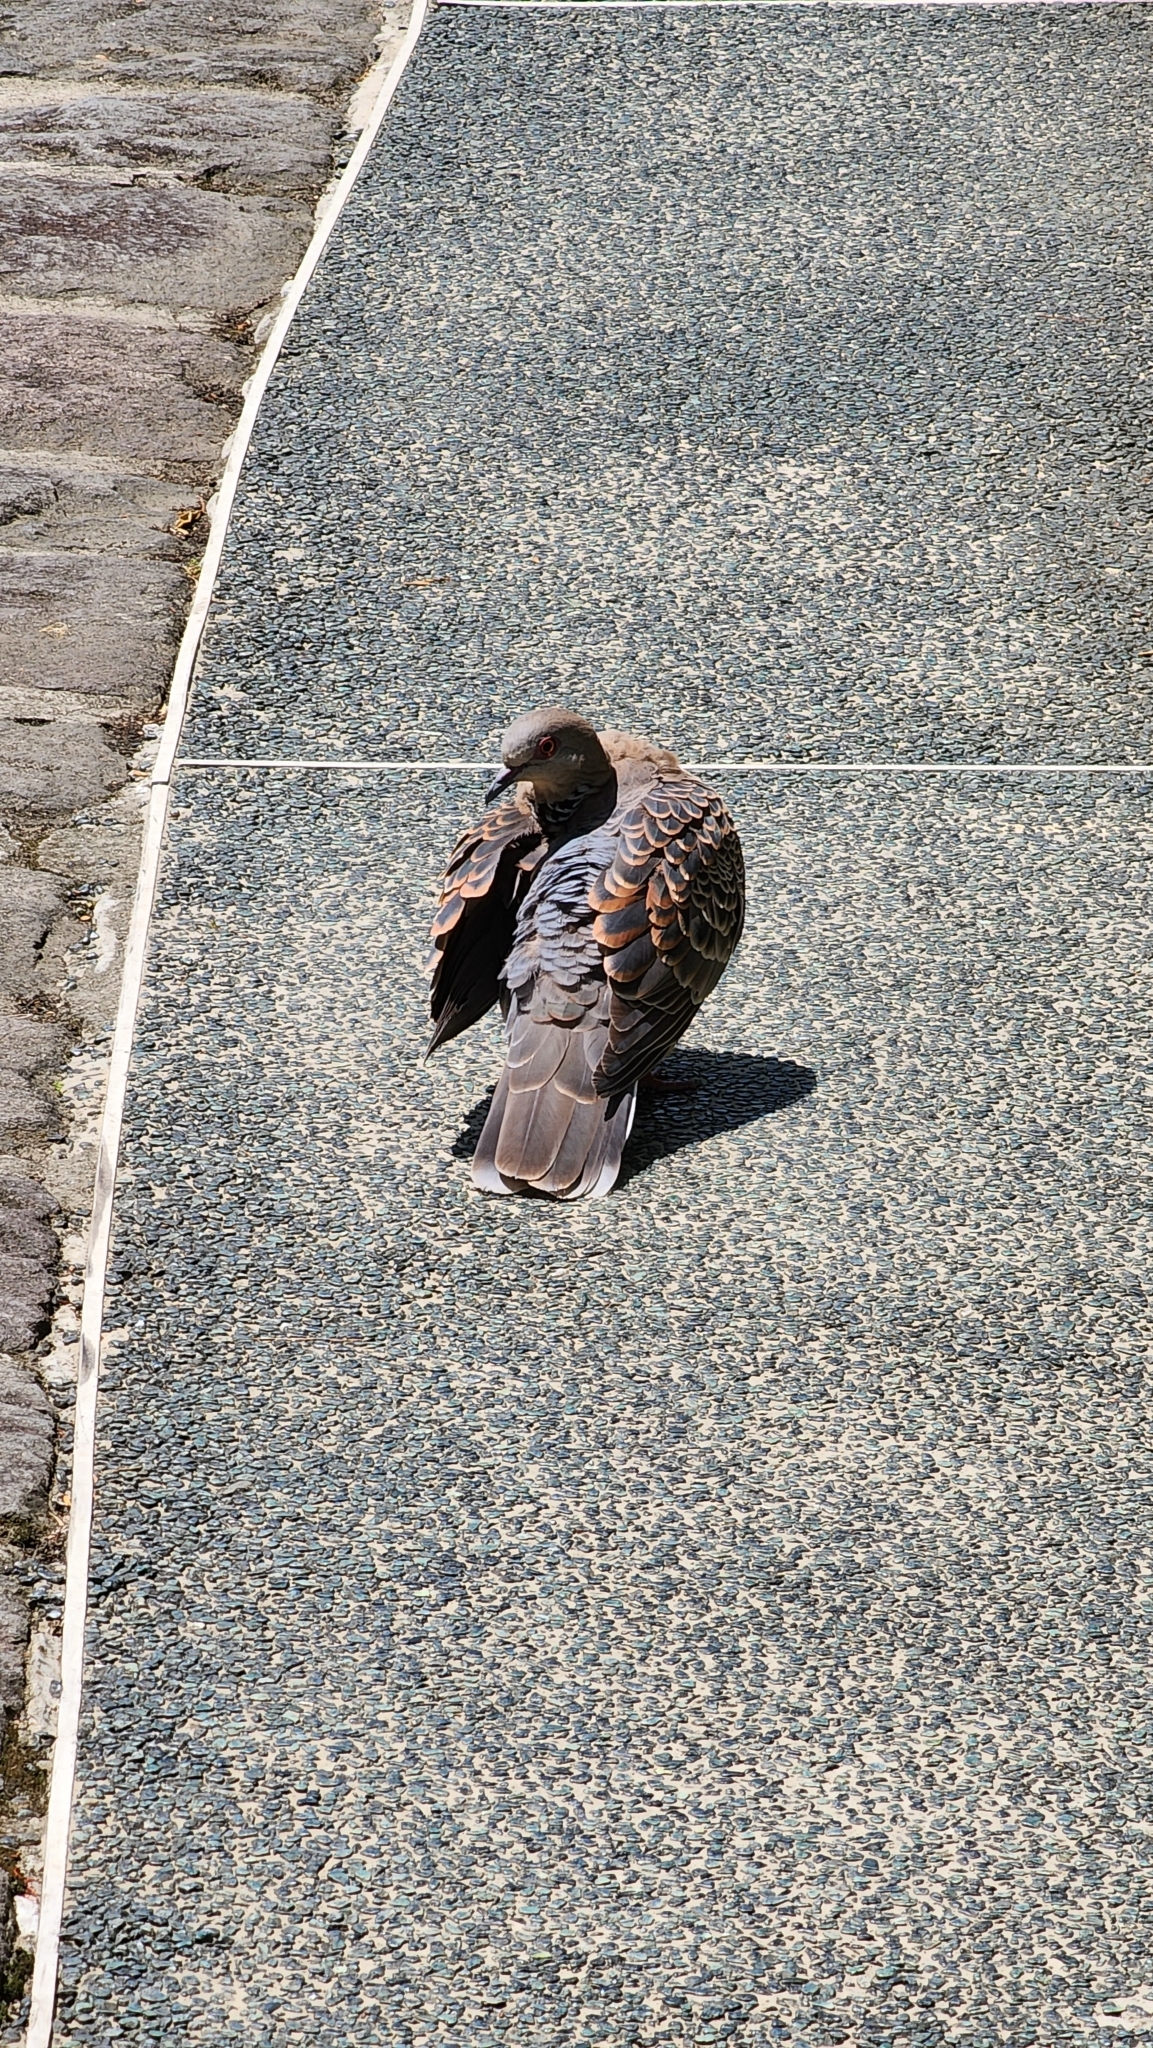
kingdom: Animalia
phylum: Chordata
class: Aves
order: Columbiformes
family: Columbidae
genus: Streptopelia
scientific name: Streptopelia orientalis
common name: Oriental turtle dove
